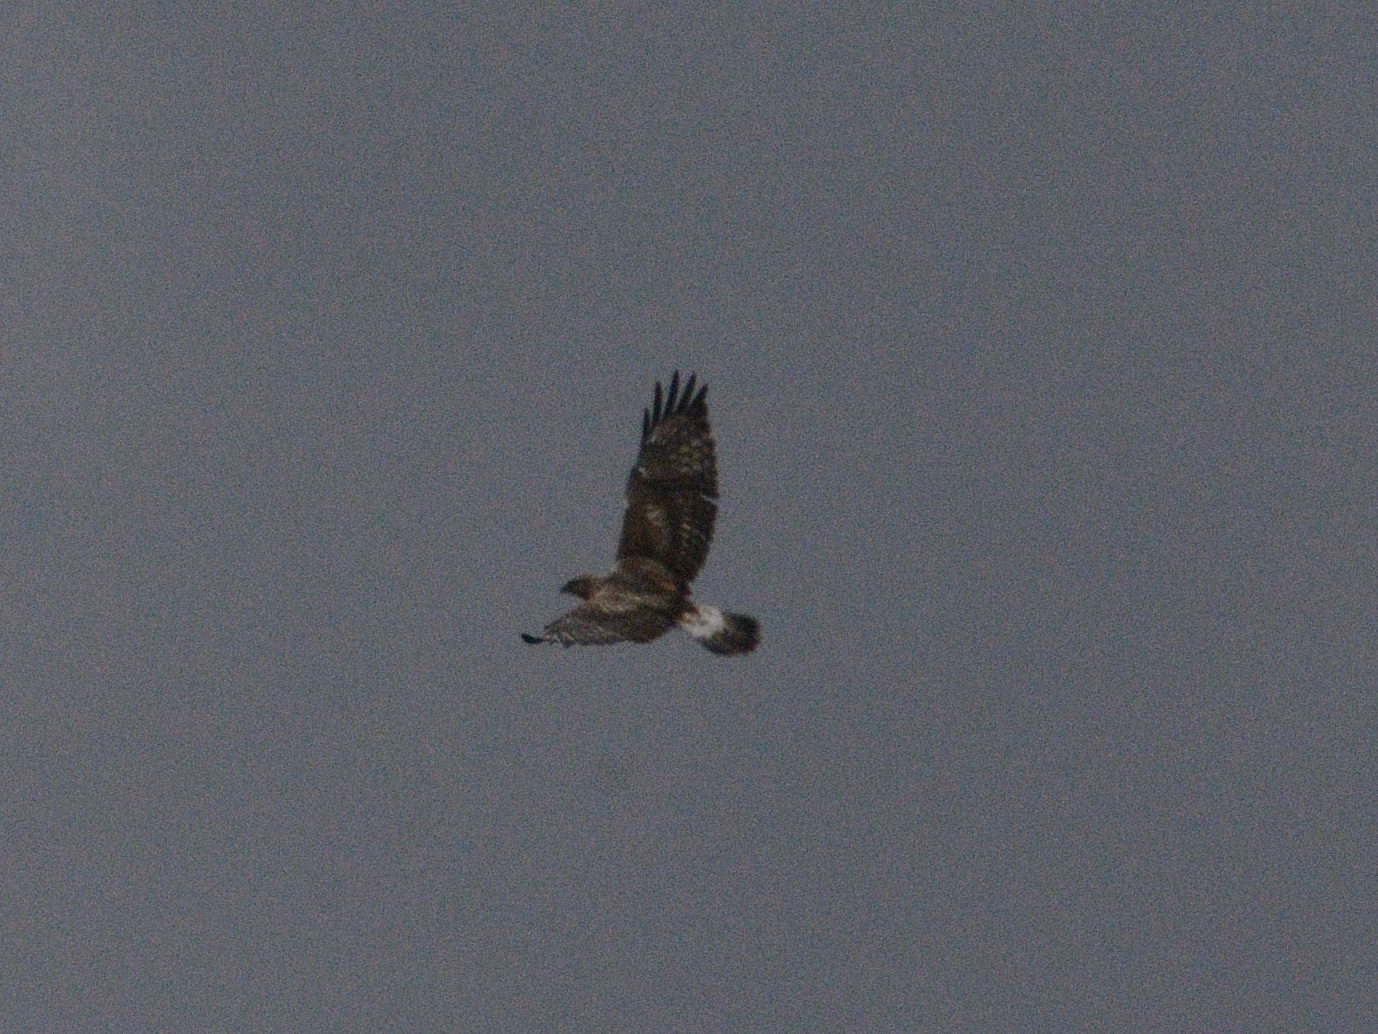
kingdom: Animalia
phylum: Chordata
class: Aves
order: Accipitriformes
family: Accipitridae
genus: Buteo
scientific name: Buteo lagopus
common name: Rough-legged buzzard
